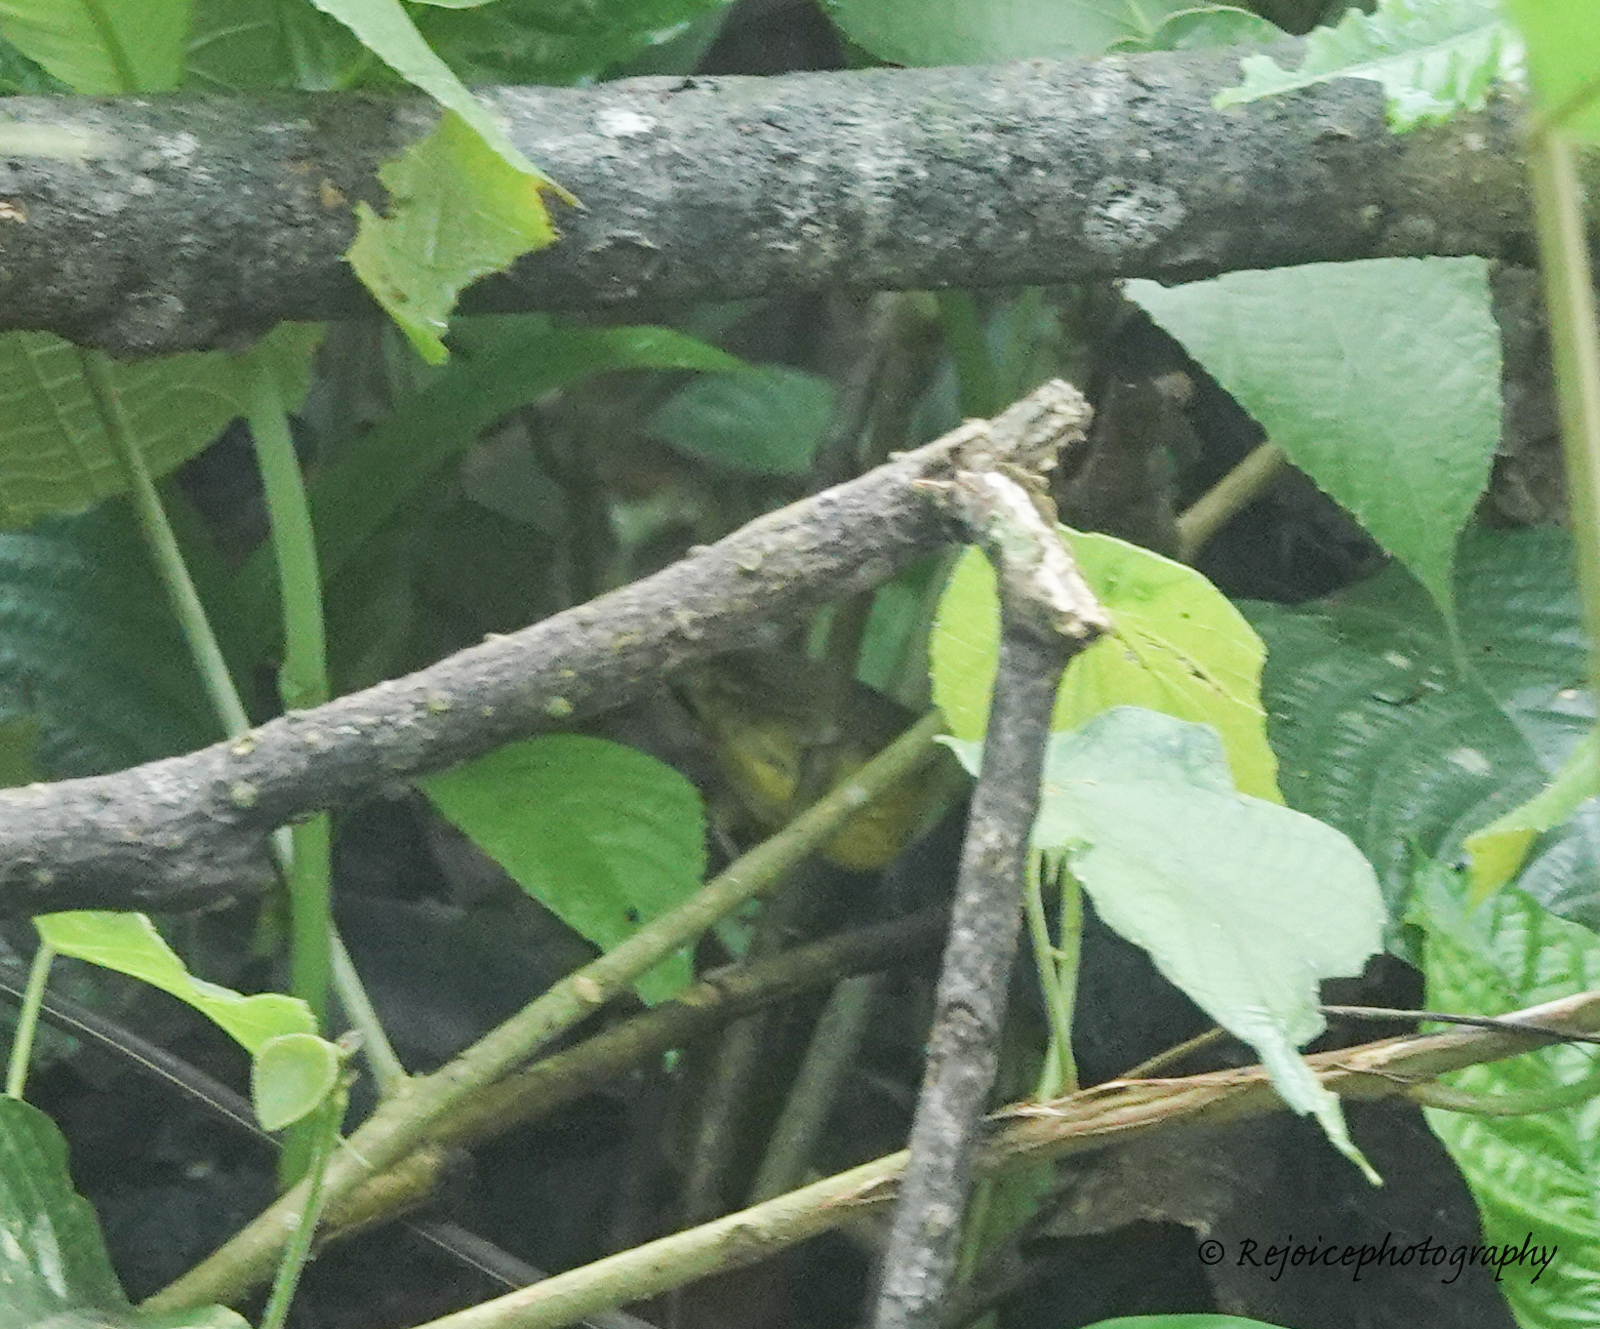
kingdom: Animalia
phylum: Chordata
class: Aves
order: Passeriformes
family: Cettiidae
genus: Cettia
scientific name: Cettia castaneocoronata
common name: Chestnut-headed tesia
